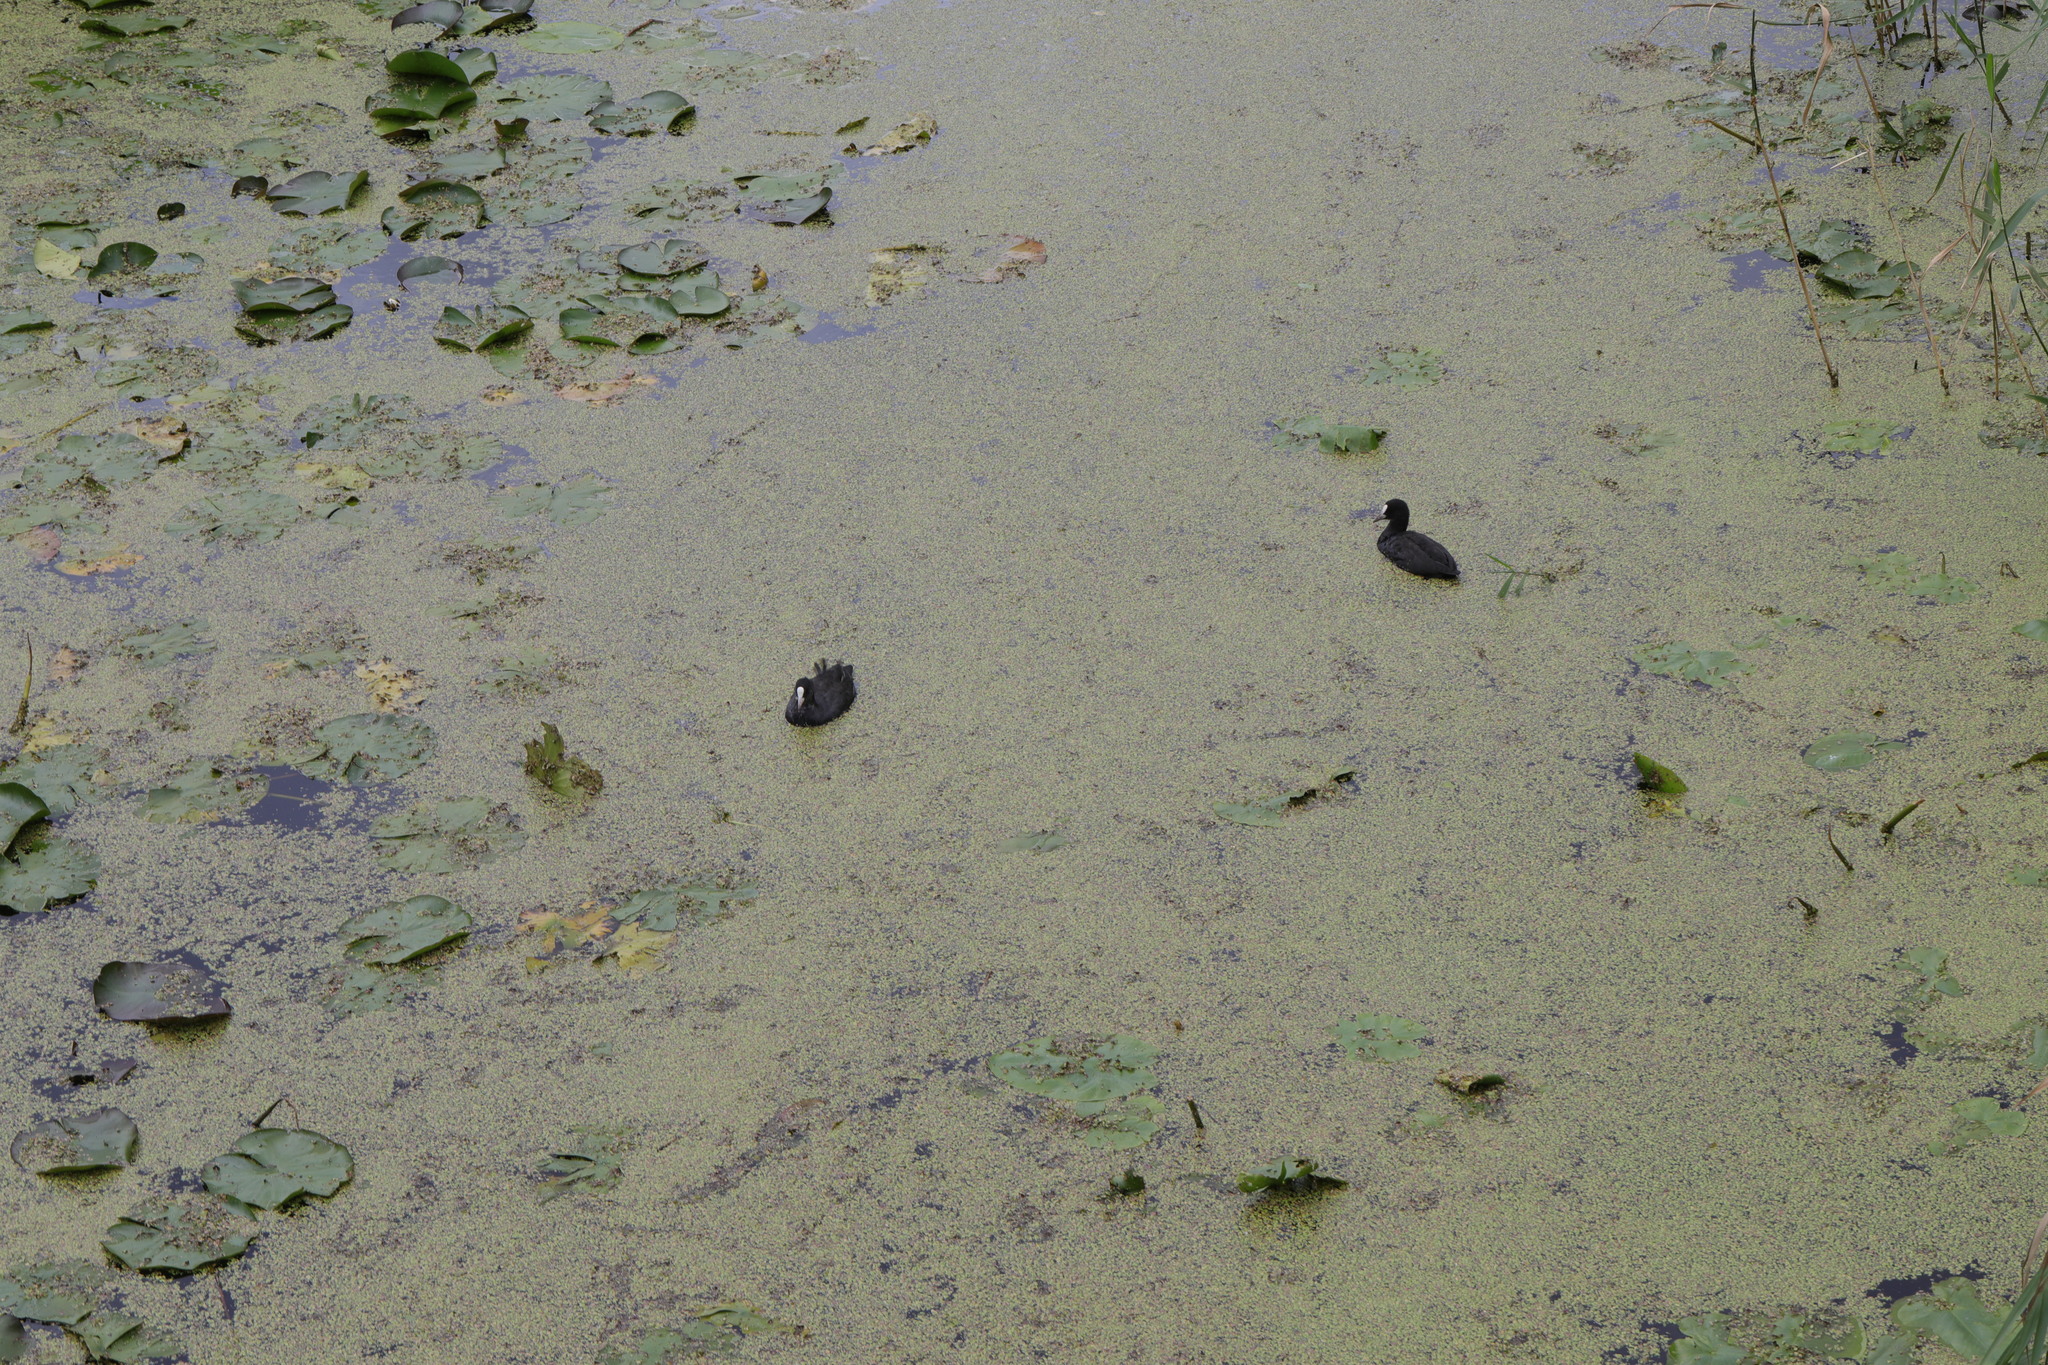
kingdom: Animalia
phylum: Chordata
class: Aves
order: Gruiformes
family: Rallidae
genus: Fulica
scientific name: Fulica atra
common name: Eurasian coot
